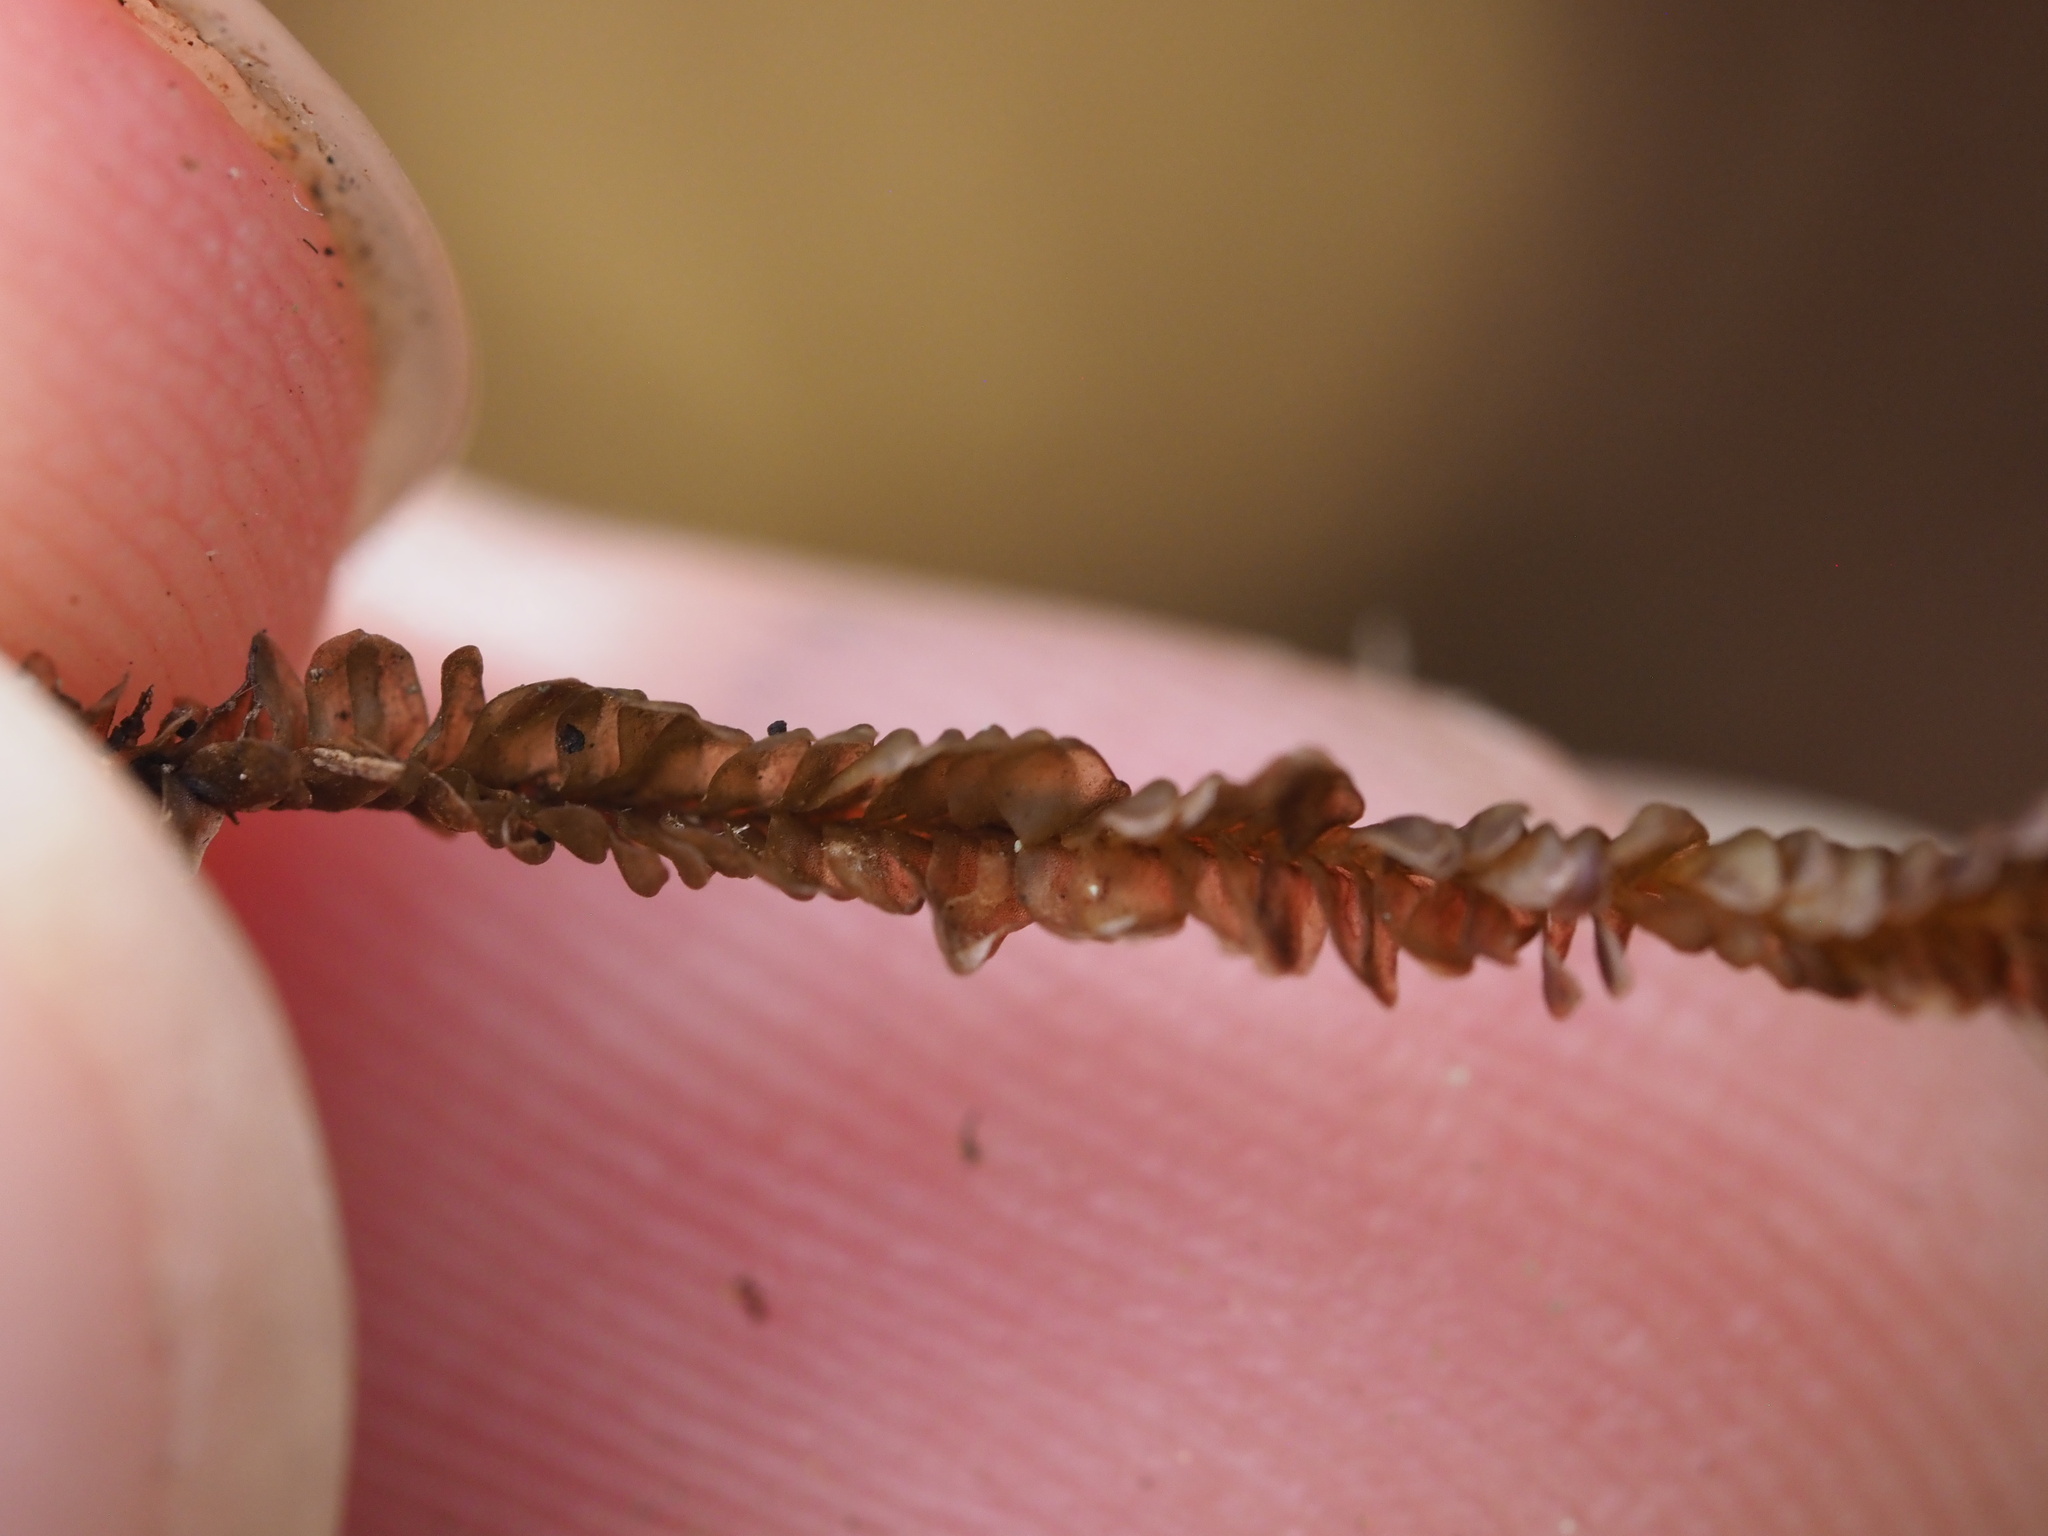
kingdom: Plantae
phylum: Marchantiophyta
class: Jungermanniopsida
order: Jungermanniales
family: Adelanthaceae
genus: Cuspidatula
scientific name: Cuspidatula robusta
